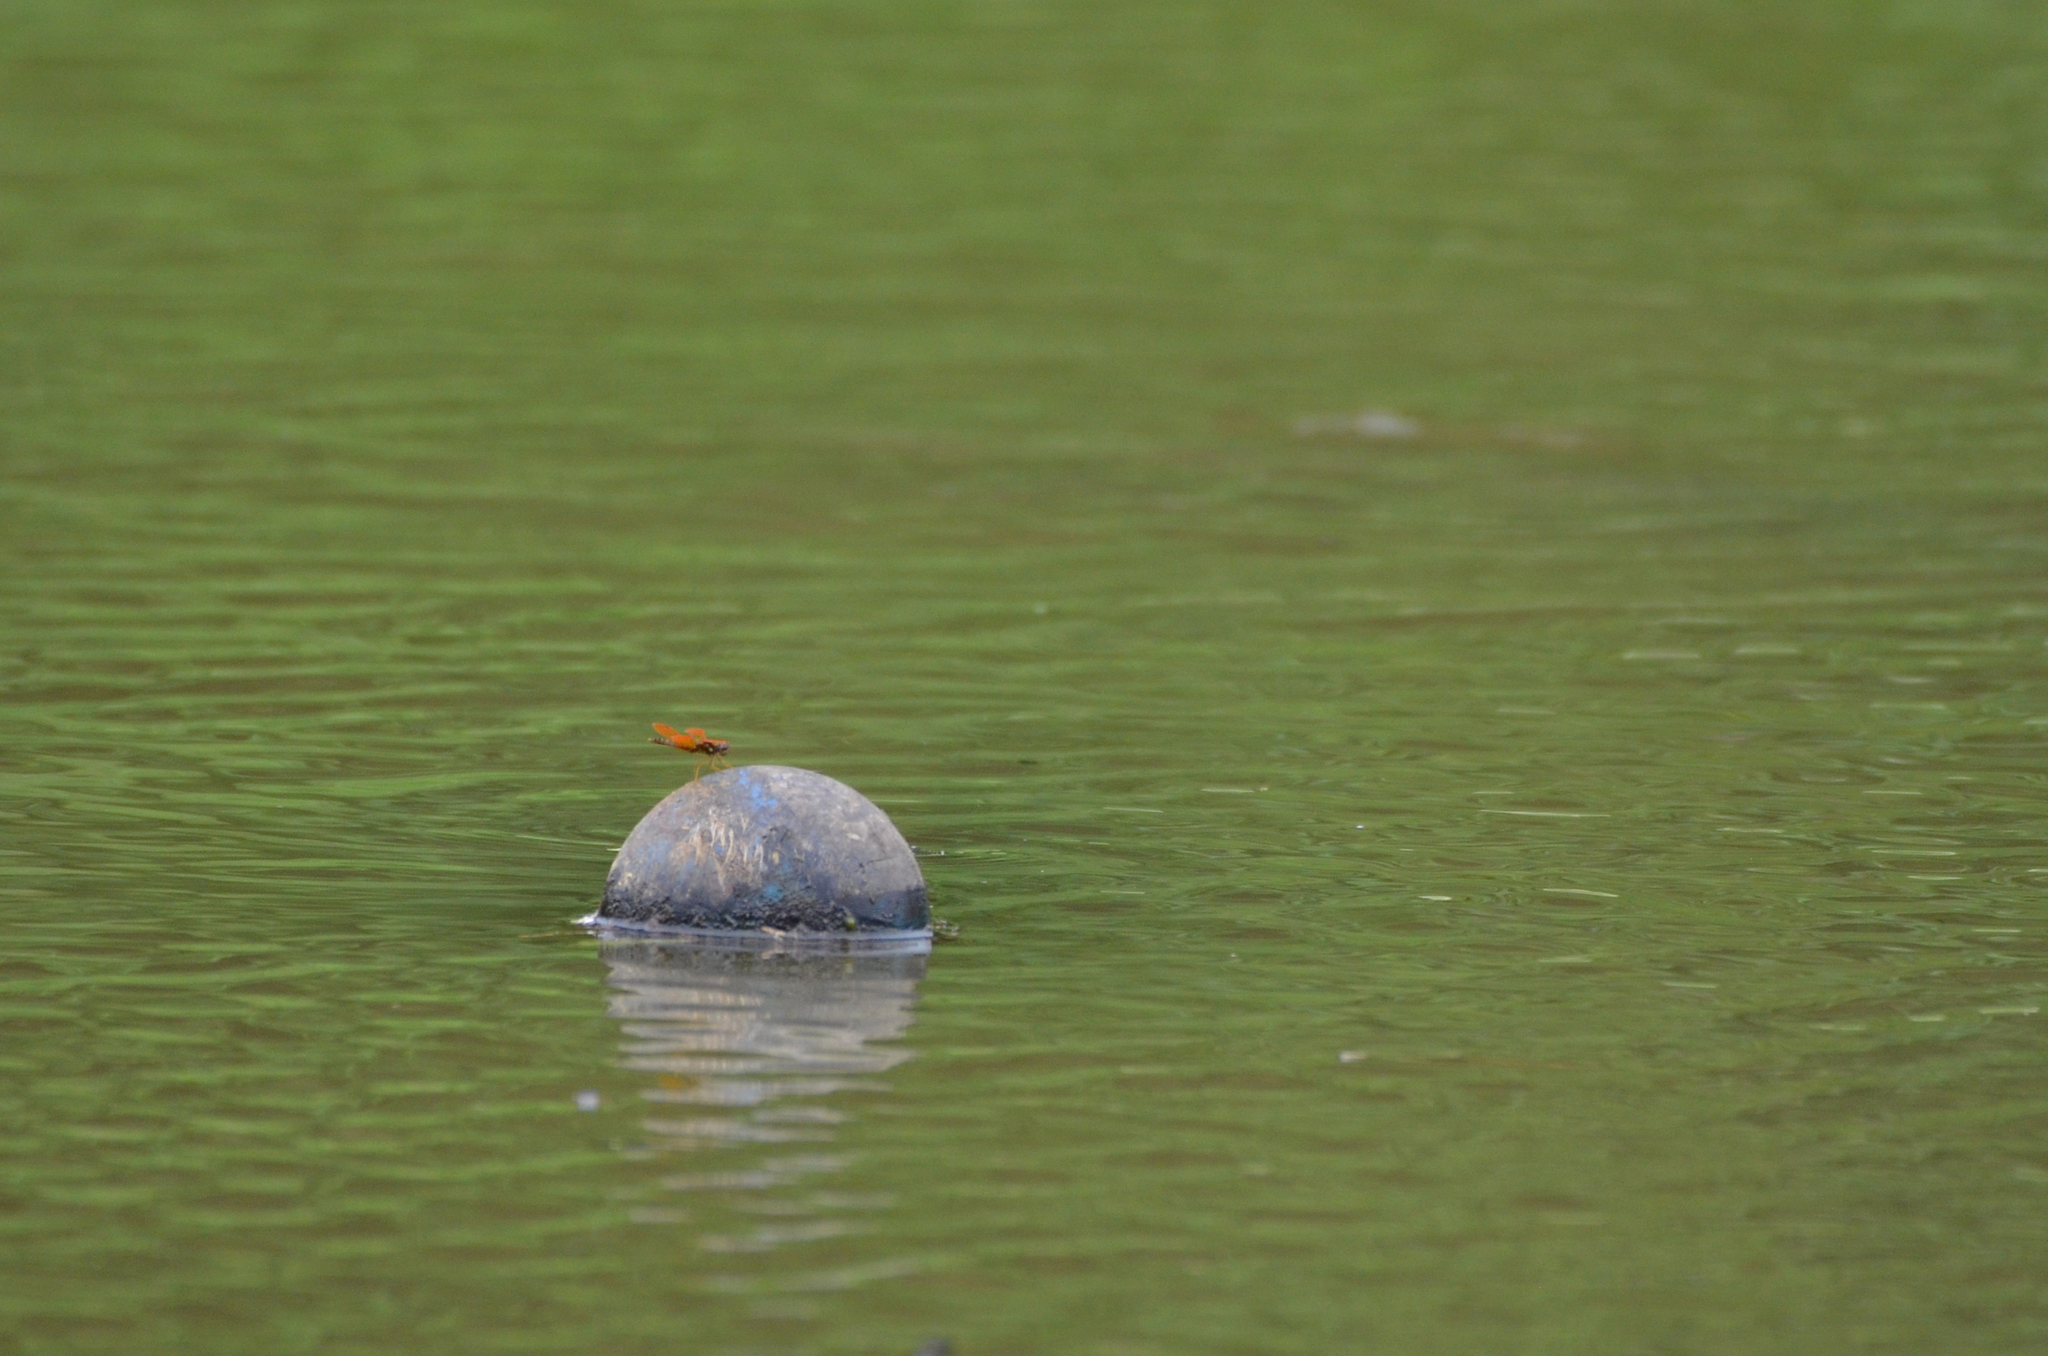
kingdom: Animalia
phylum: Arthropoda
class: Insecta
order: Odonata
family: Libellulidae
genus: Perithemis
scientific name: Perithemis tenera
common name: Eastern amberwing
